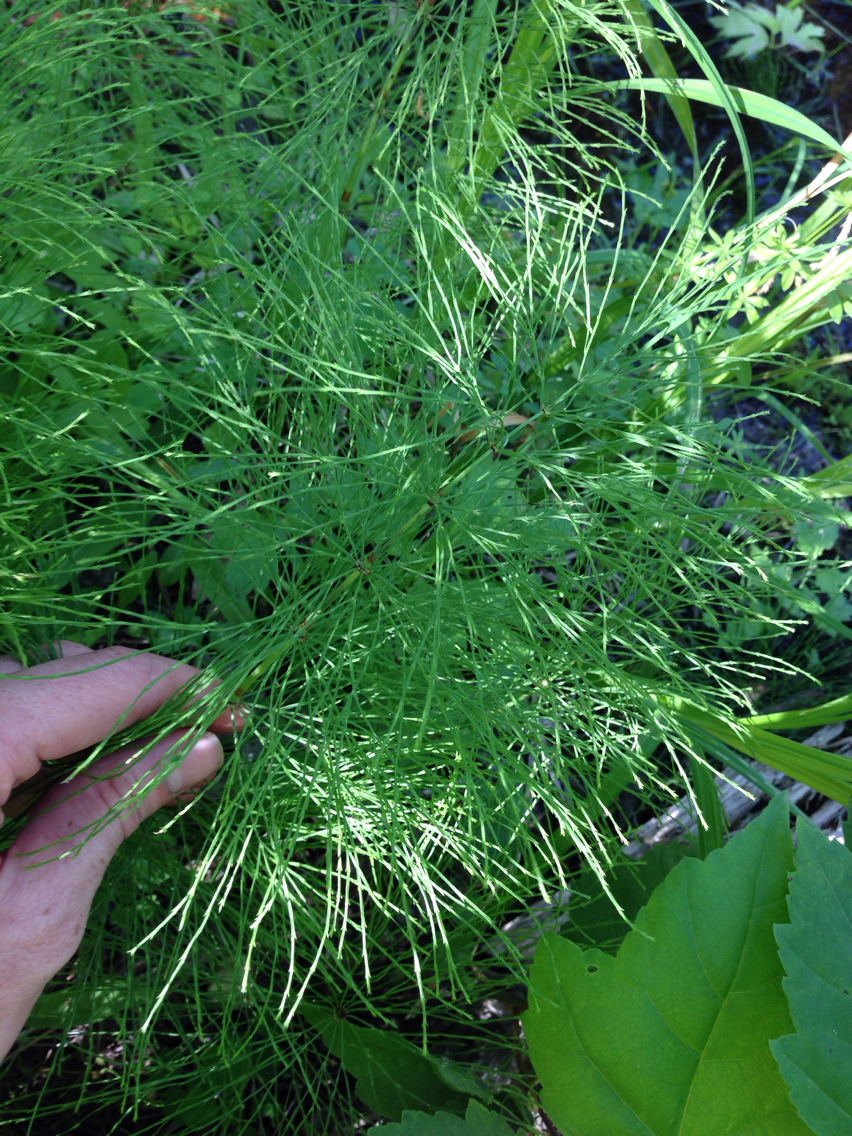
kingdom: Plantae
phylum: Tracheophyta
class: Polypodiopsida
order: Equisetales
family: Equisetaceae
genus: Equisetum
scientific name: Equisetum sylvaticum
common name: Wood horsetail
